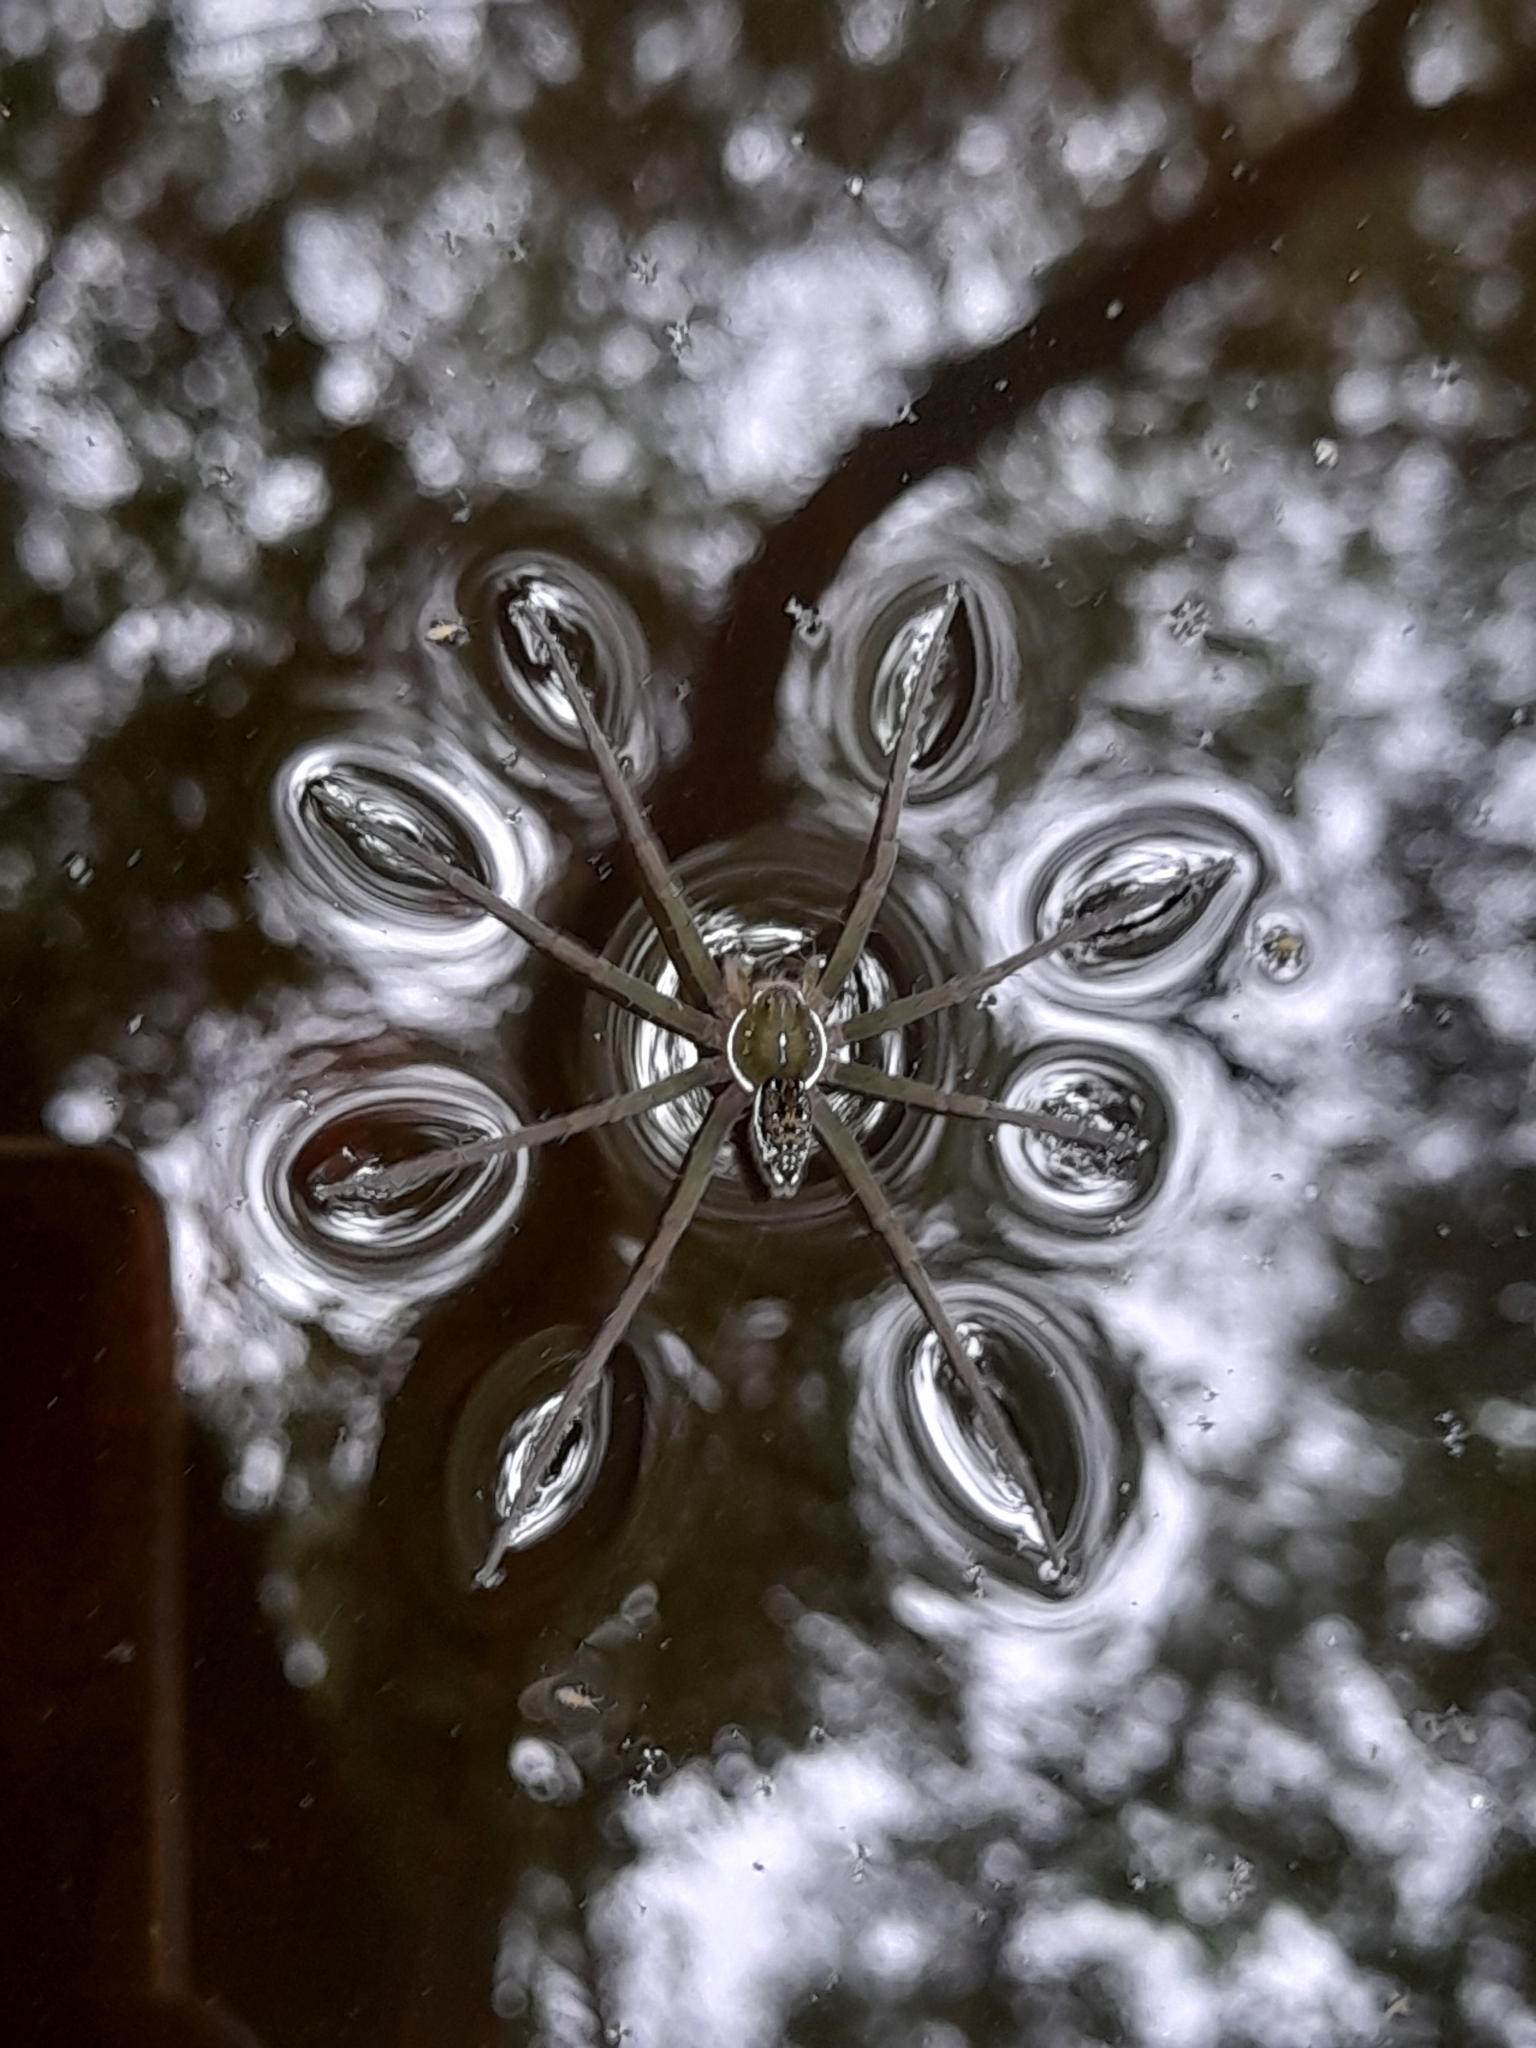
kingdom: Animalia
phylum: Arthropoda
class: Arachnida
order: Araneae
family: Pisauridae
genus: Thaumasia
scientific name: Thaumasia velox
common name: Nursery web spiders
